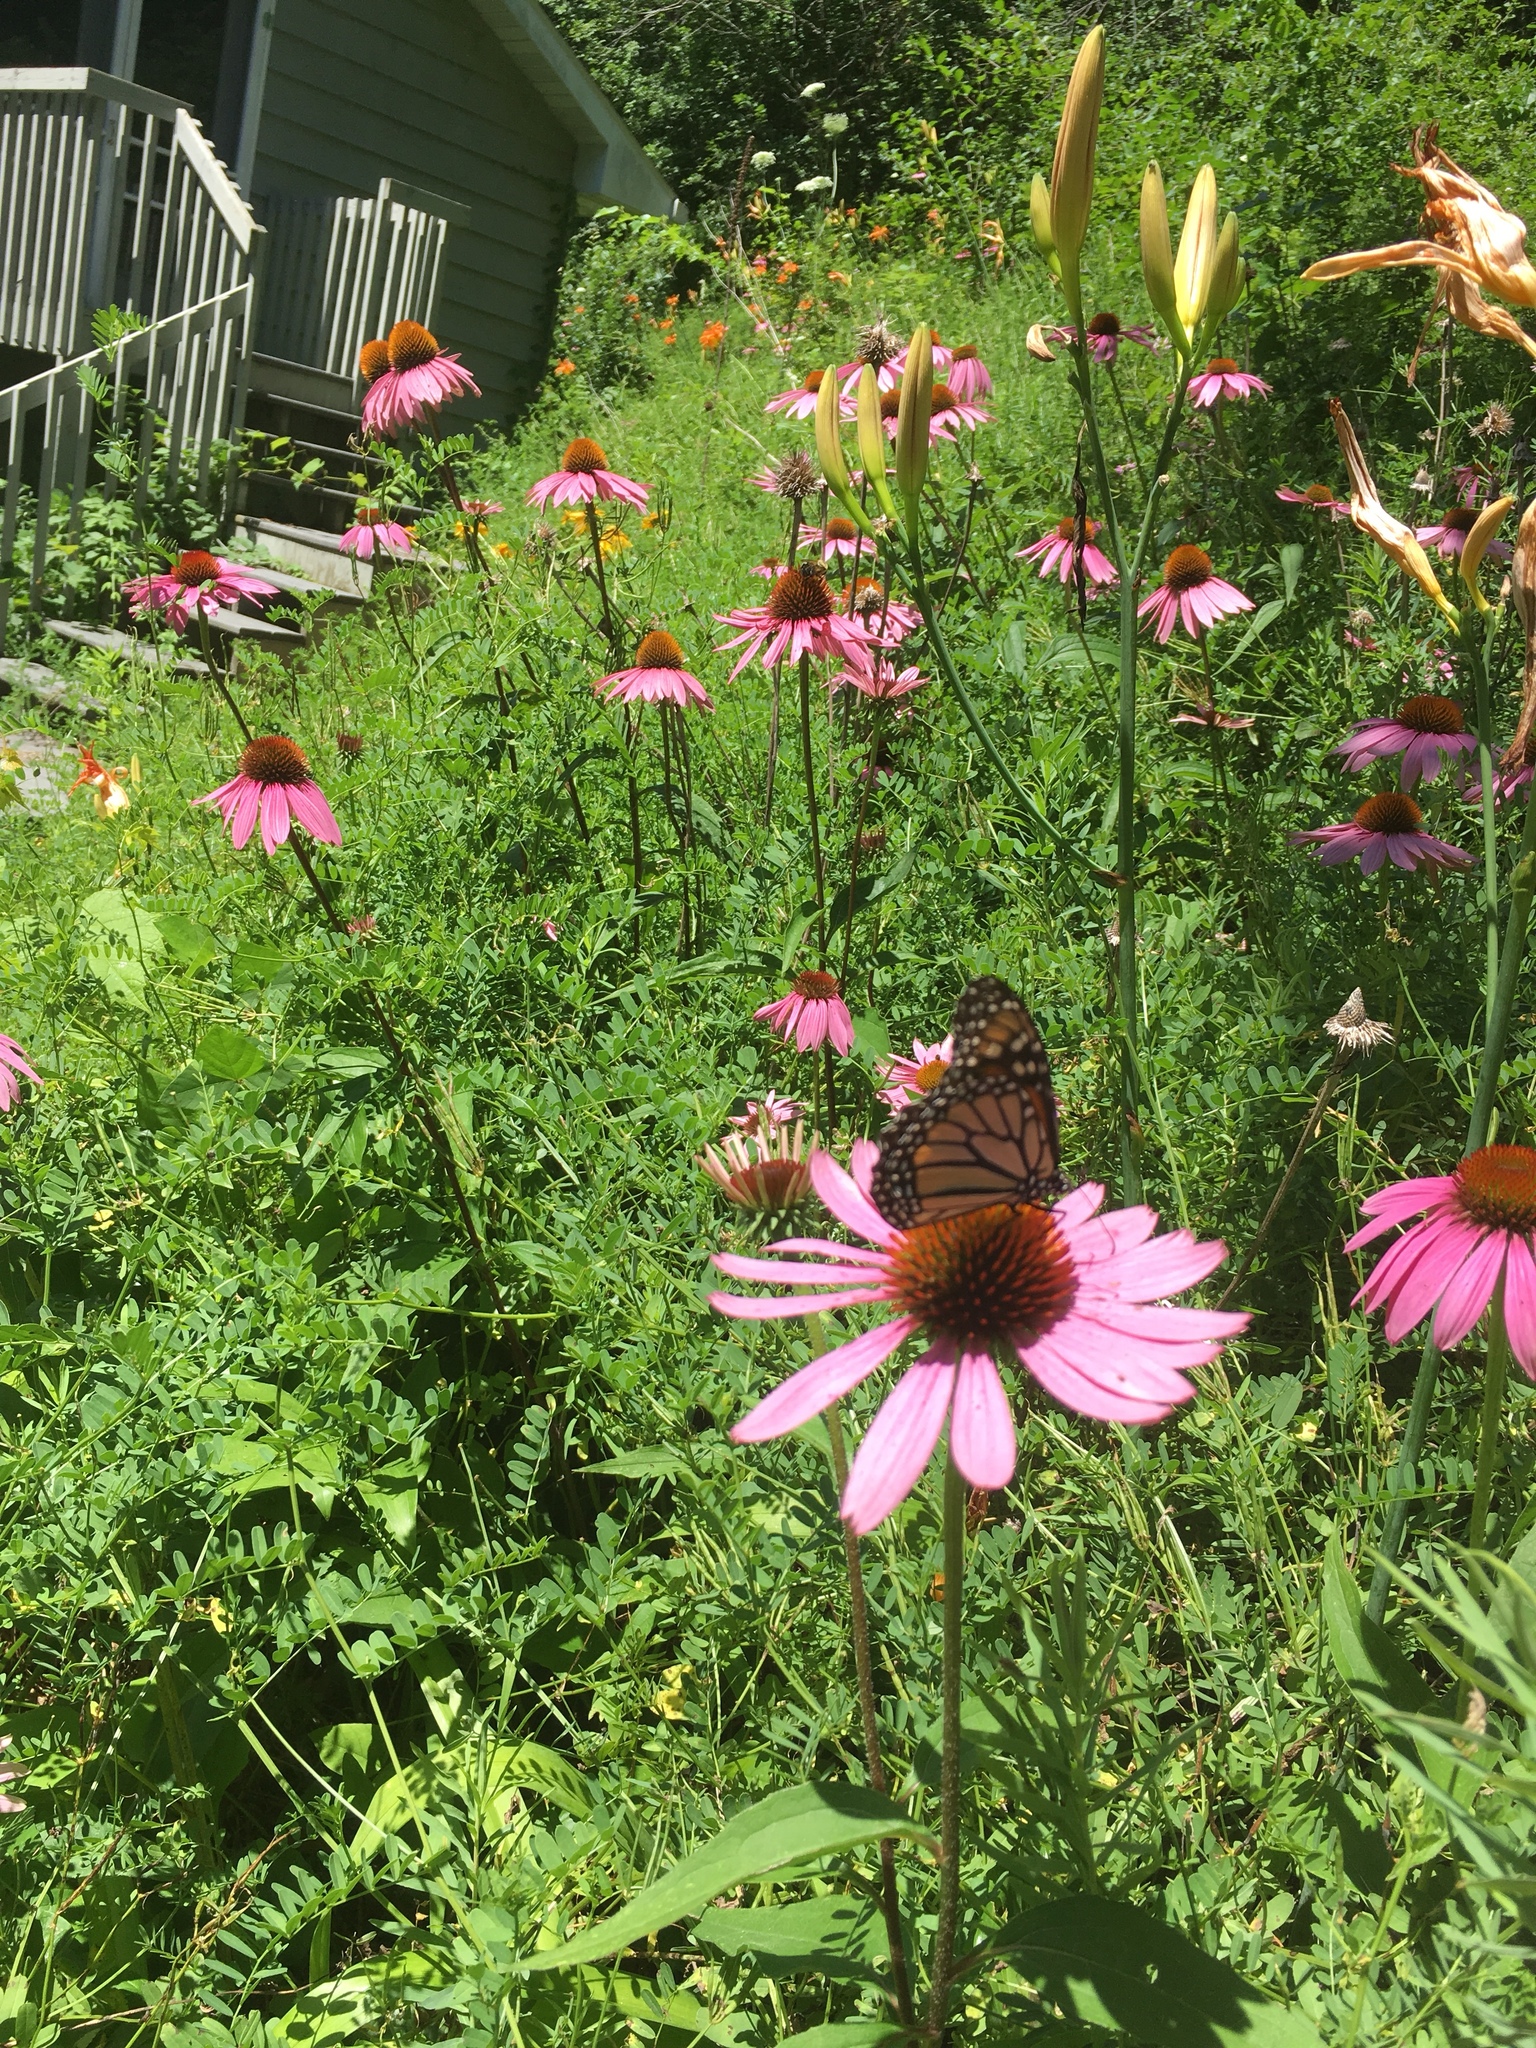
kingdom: Animalia
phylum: Arthropoda
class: Insecta
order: Lepidoptera
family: Nymphalidae
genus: Danaus
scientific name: Danaus plexippus
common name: Monarch
